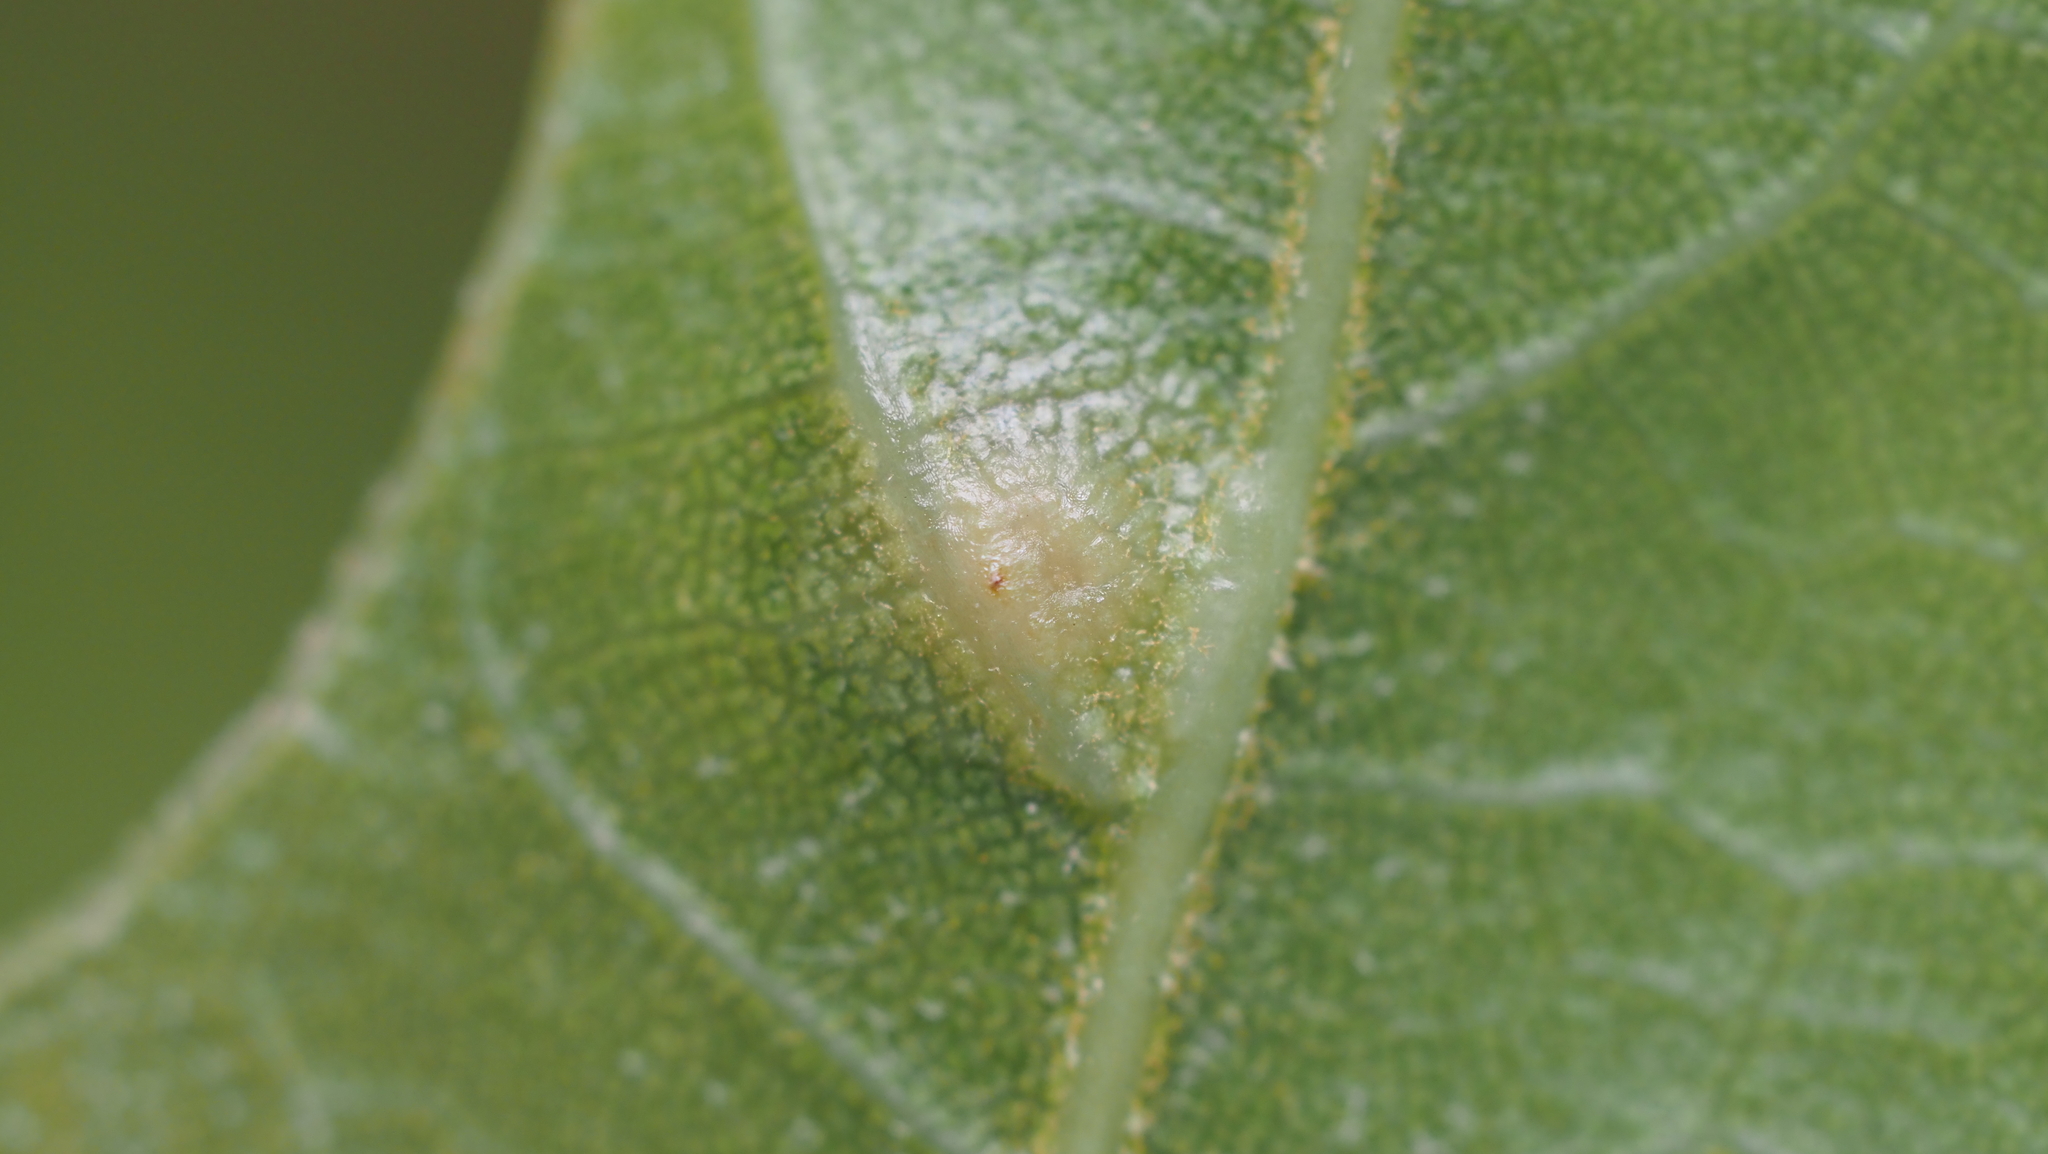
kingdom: Animalia
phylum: Arthropoda
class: Insecta
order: Diptera
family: Cecidomyiidae
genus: Polystepha
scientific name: Polystepha pilulae
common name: Oak leaf gall midge
